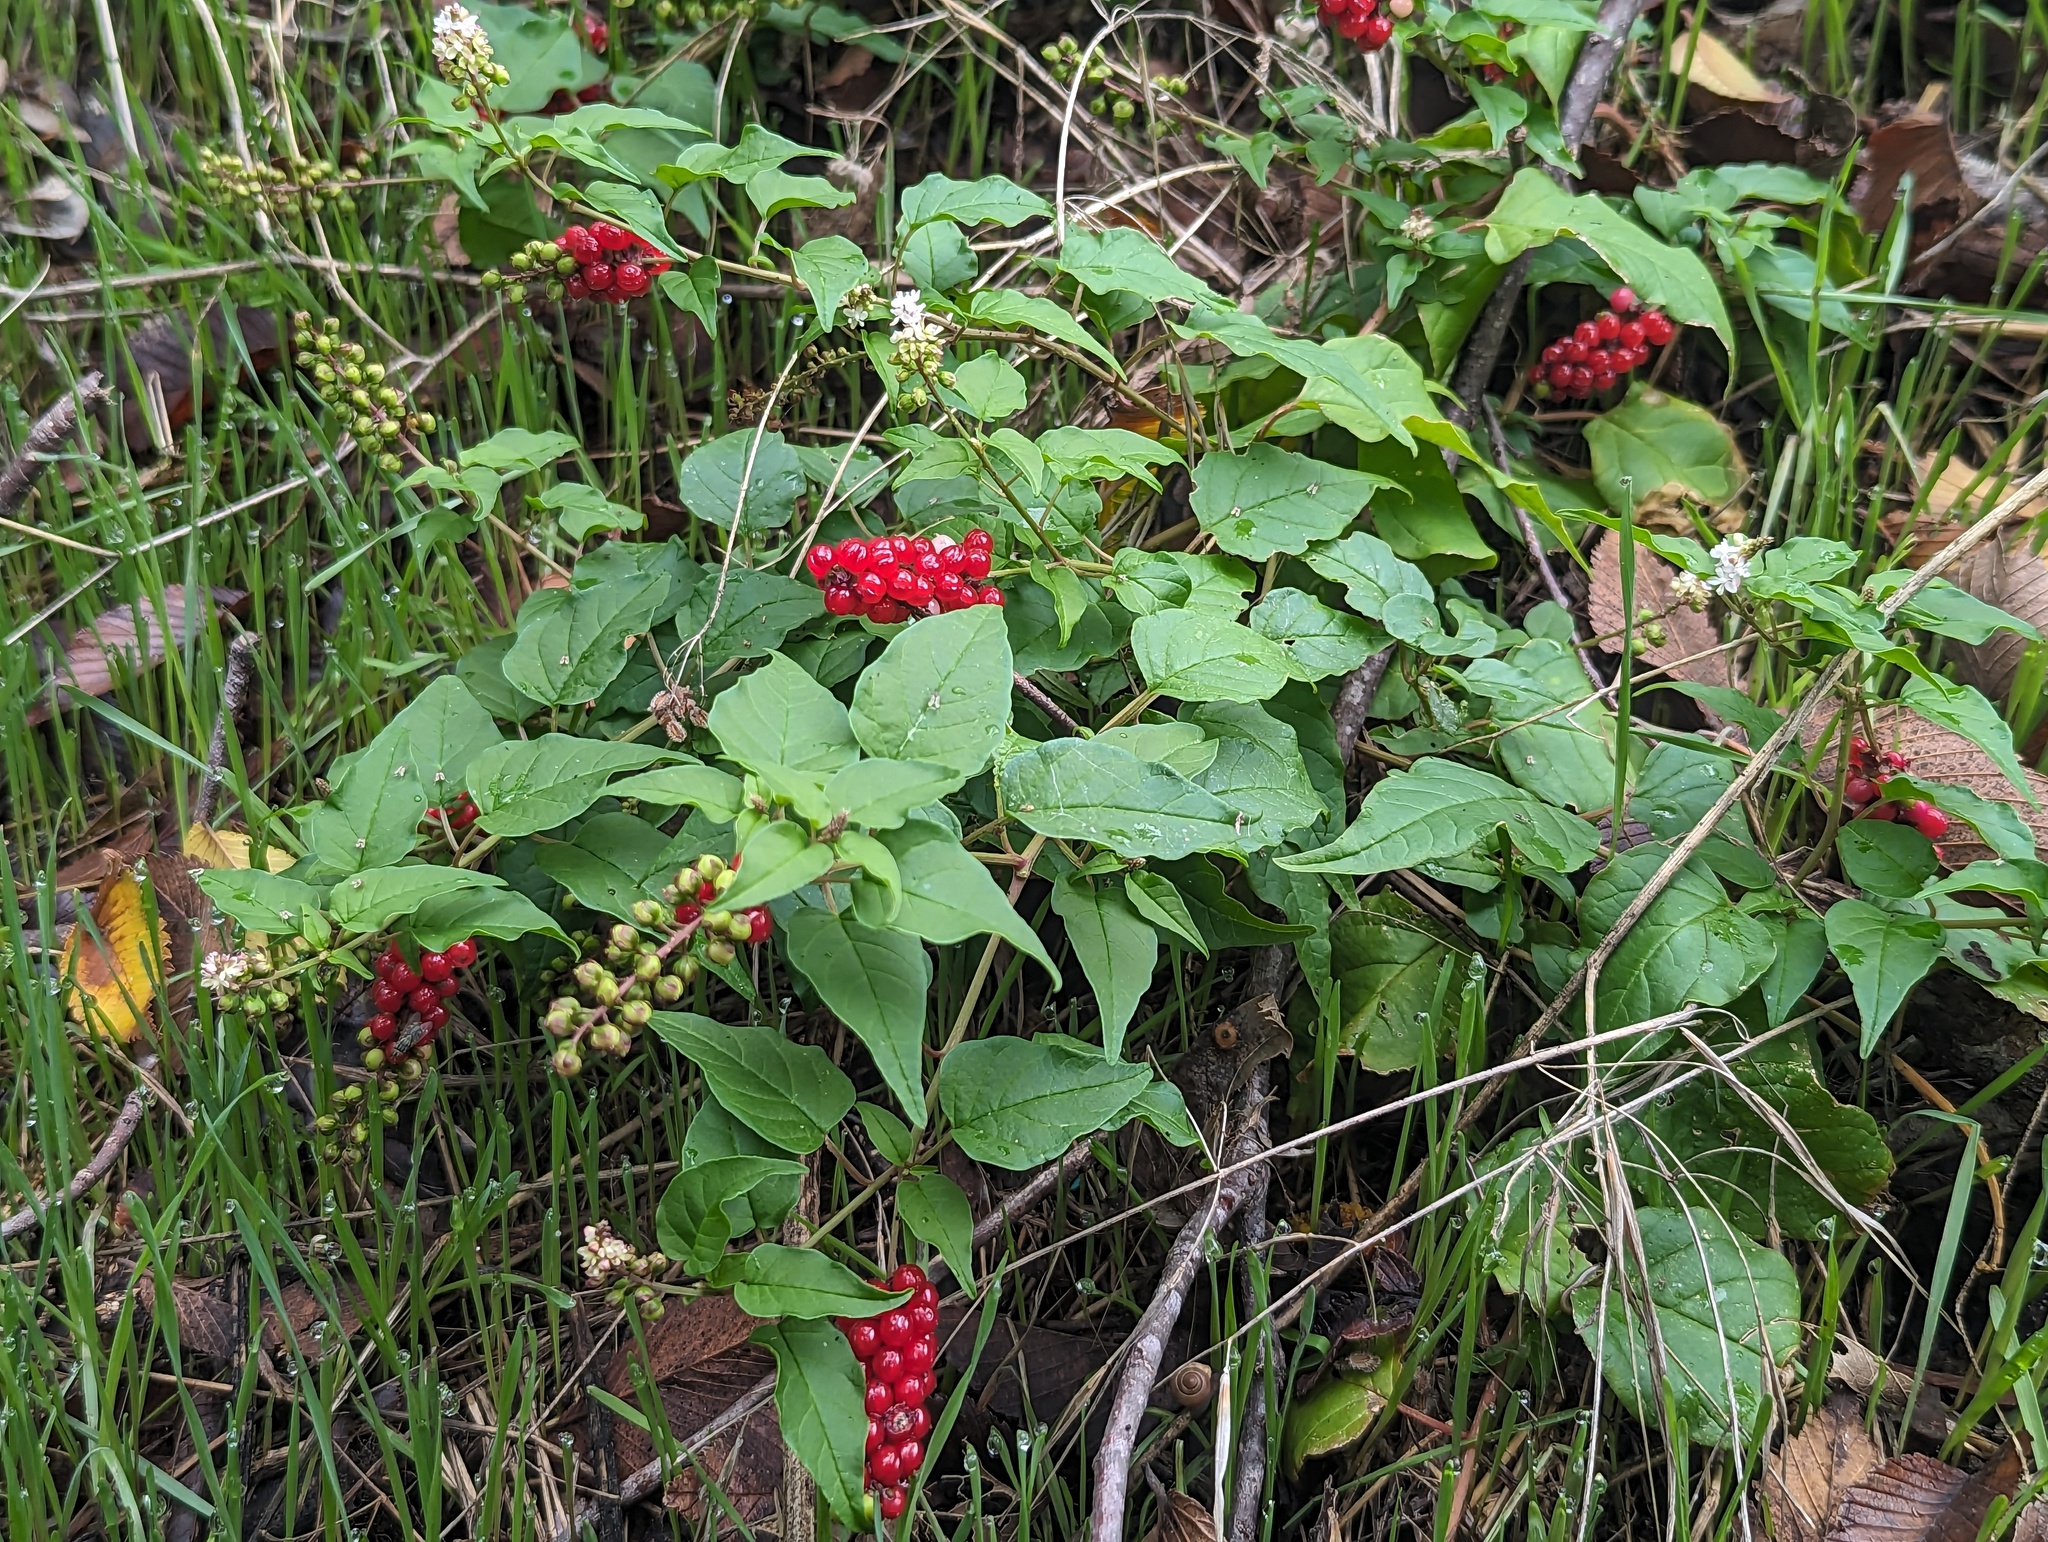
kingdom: Plantae
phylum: Tracheophyta
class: Magnoliopsida
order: Caryophyllales
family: Phytolaccaceae
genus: Rivina
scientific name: Rivina humilis
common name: Rougeplant
